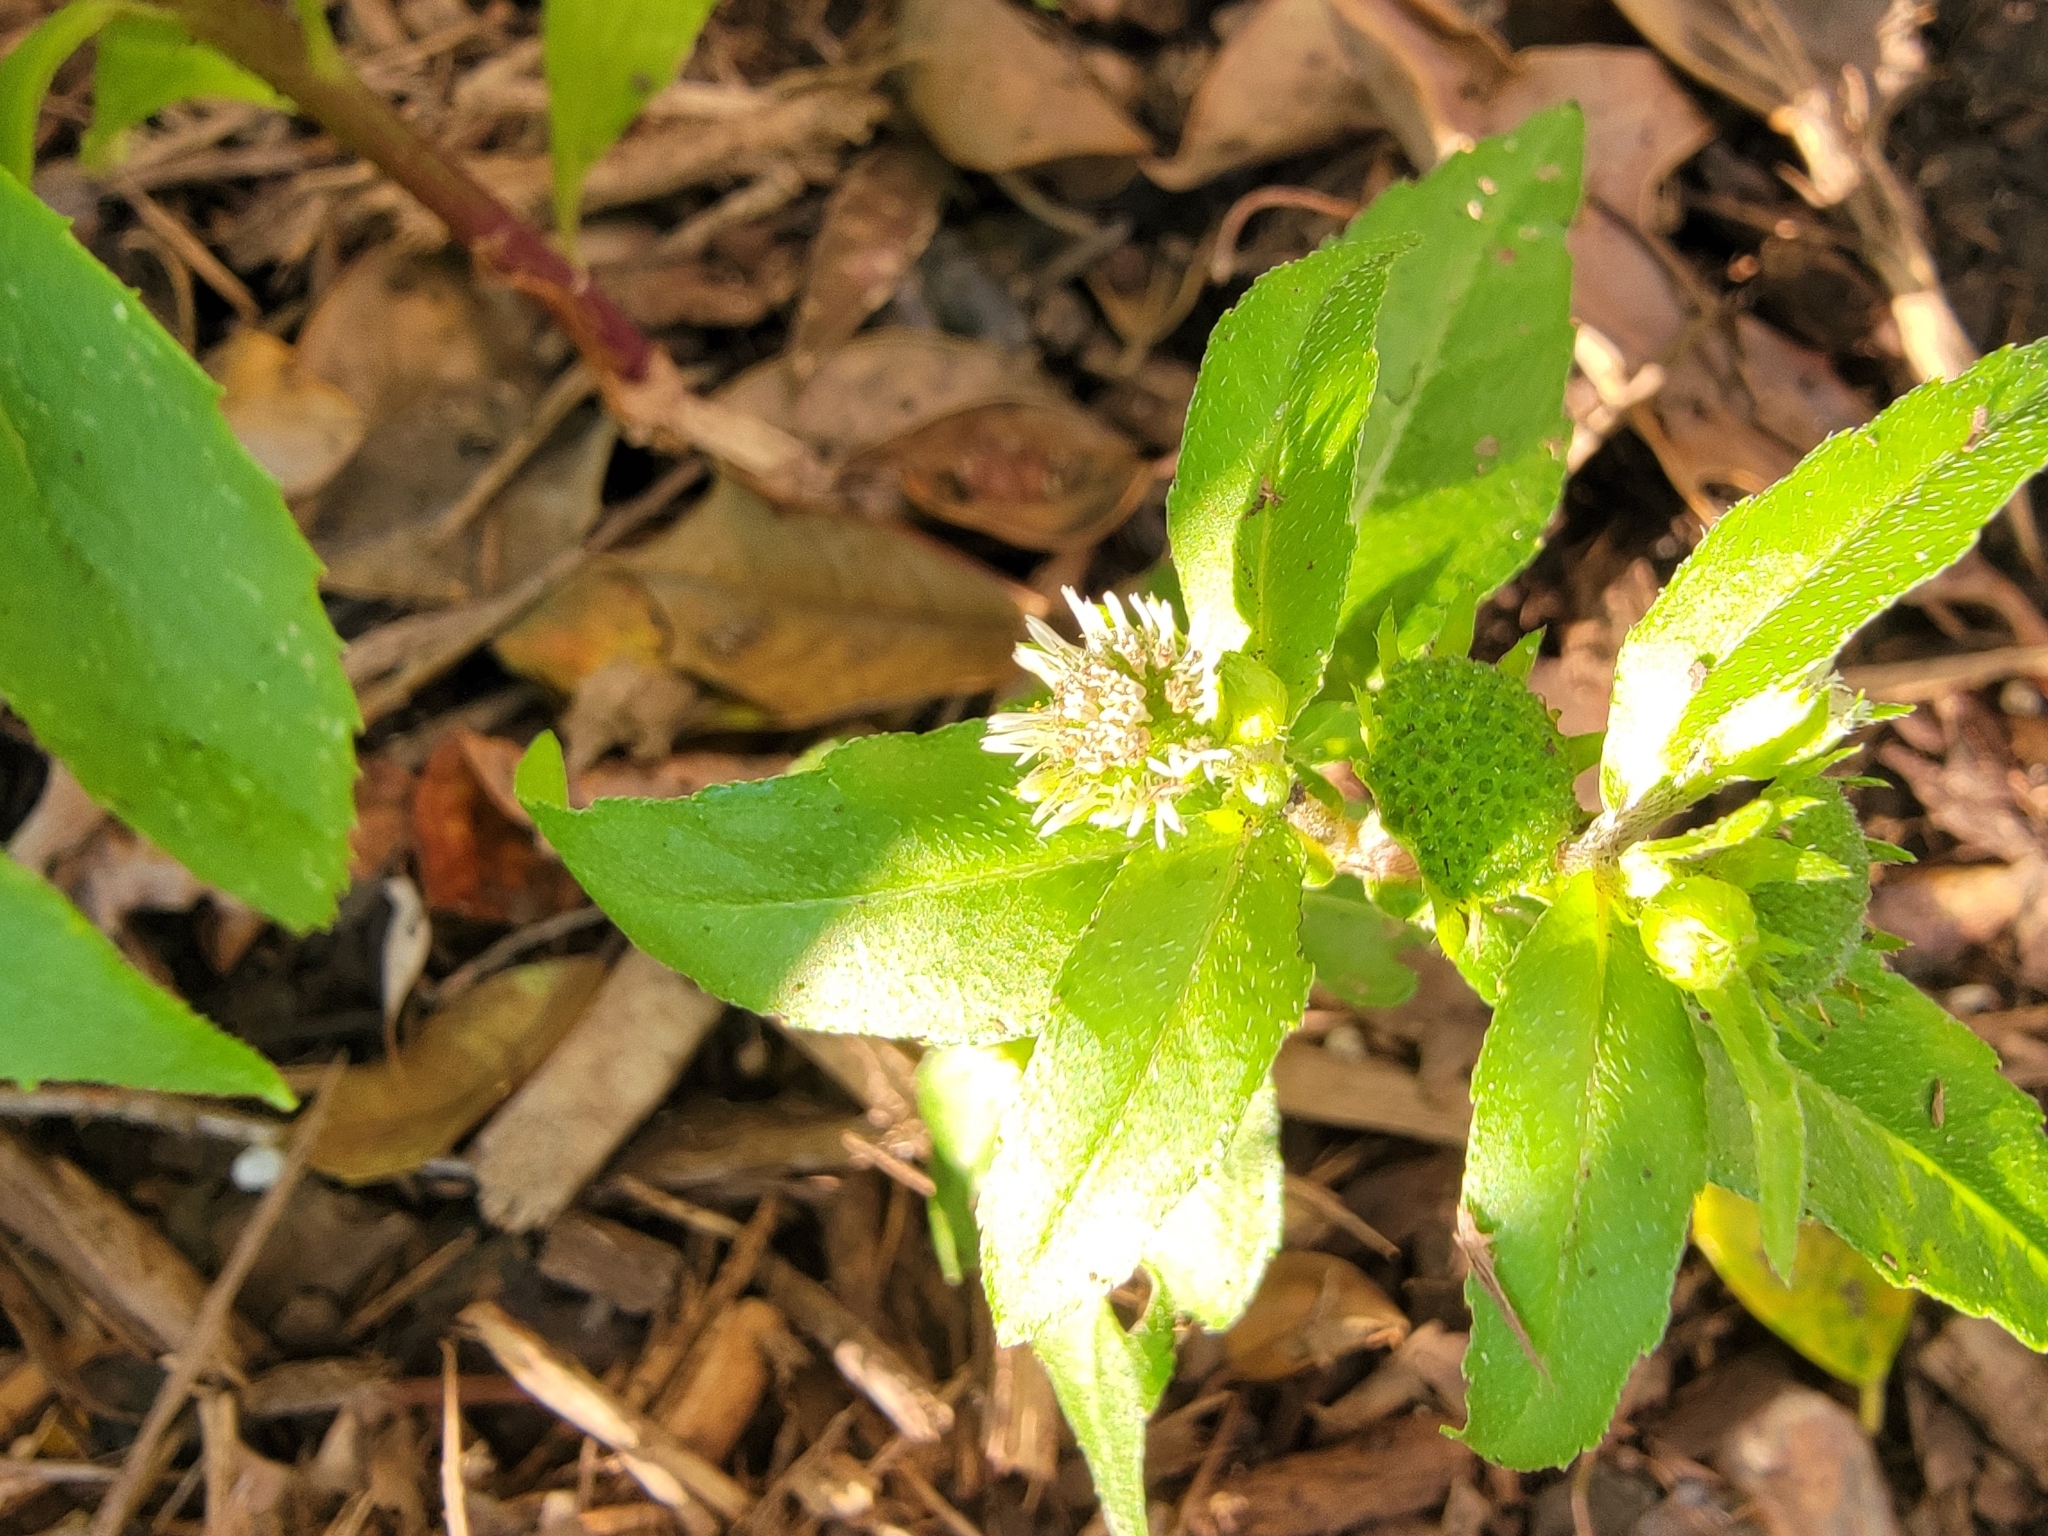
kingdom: Plantae
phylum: Tracheophyta
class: Magnoliopsida
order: Asterales
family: Asteraceae
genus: Eclipta
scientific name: Eclipta prostrata
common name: False daisy
